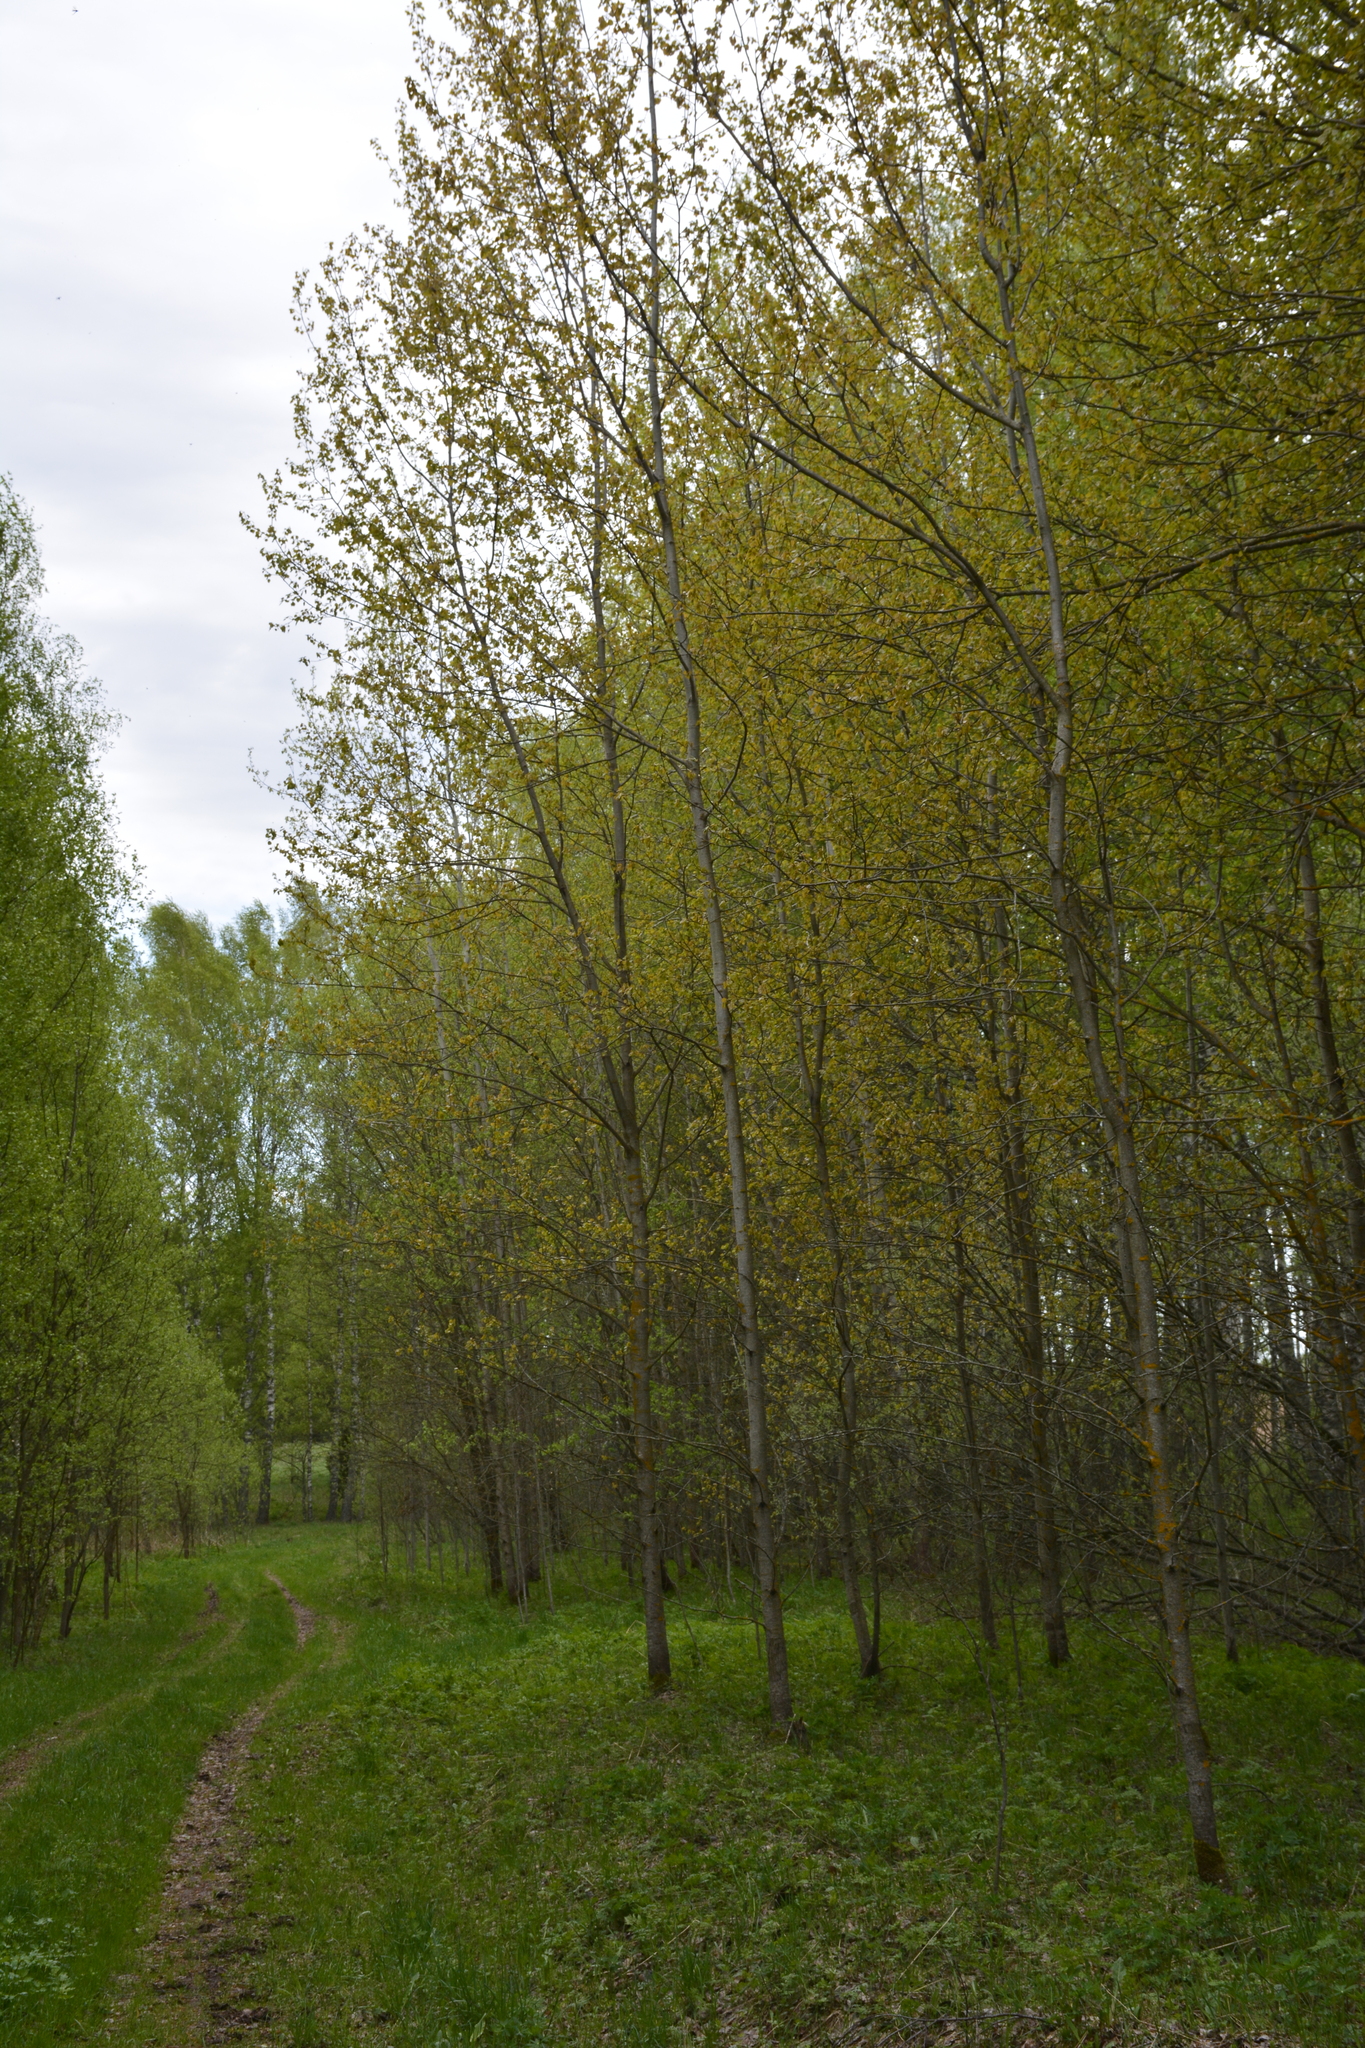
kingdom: Plantae
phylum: Tracheophyta
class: Magnoliopsida
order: Malpighiales
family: Salicaceae
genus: Populus
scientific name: Populus tremula
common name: European aspen
